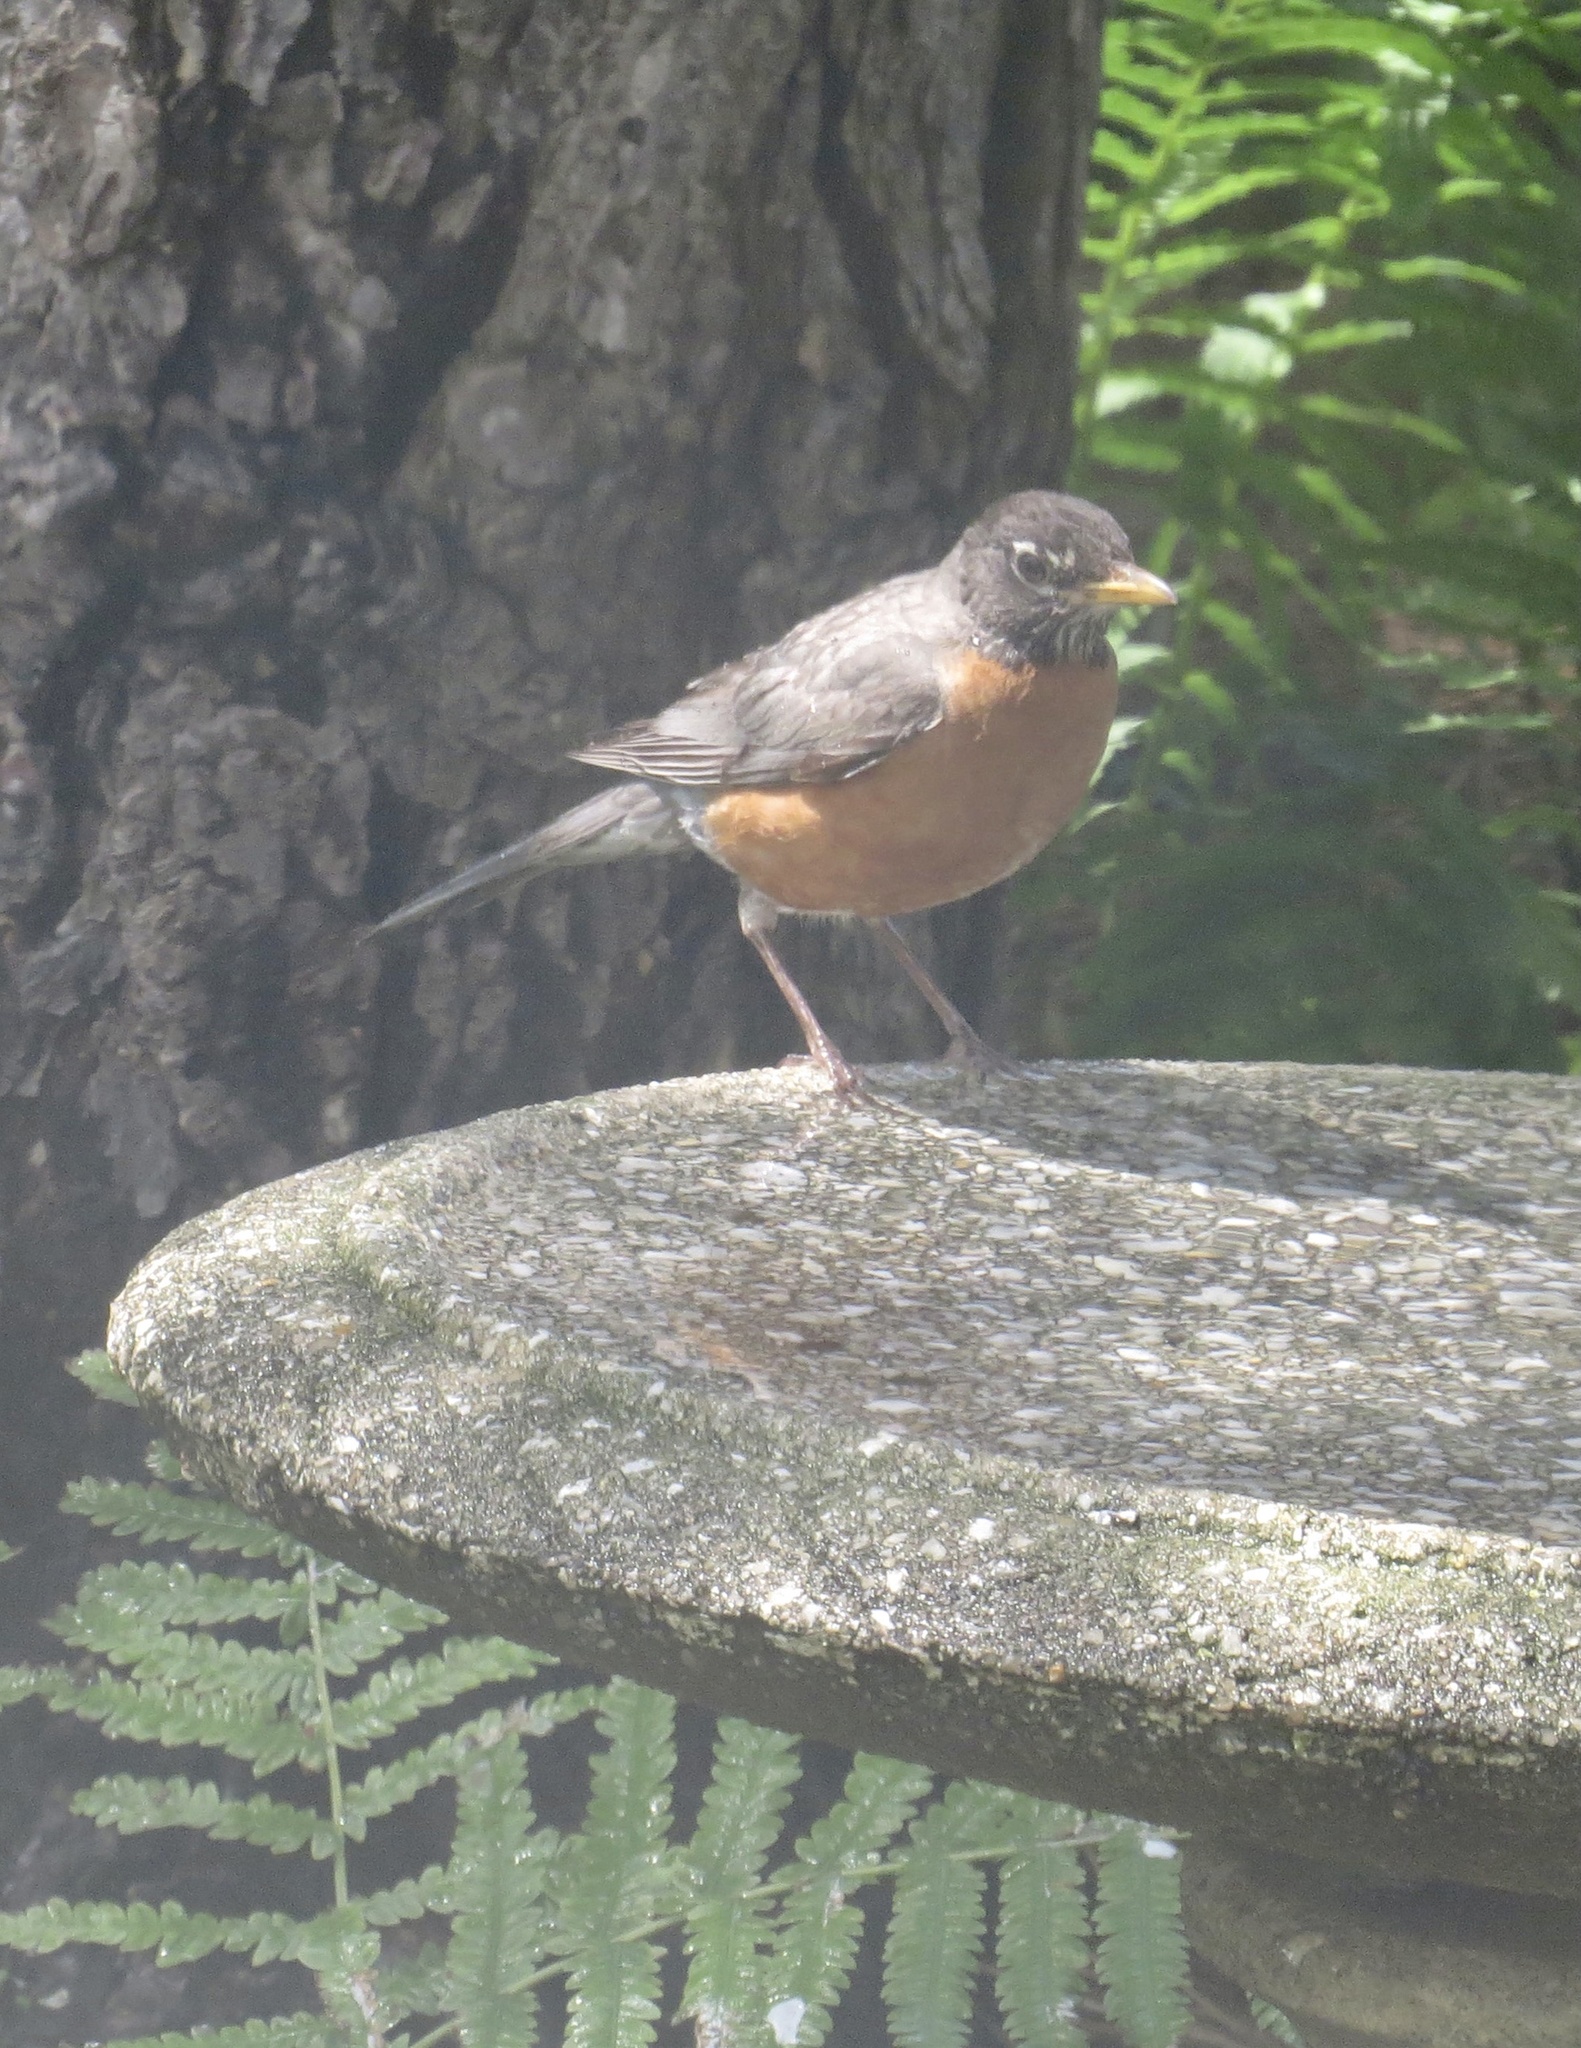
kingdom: Animalia
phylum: Chordata
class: Aves
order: Passeriformes
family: Turdidae
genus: Turdus
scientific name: Turdus migratorius
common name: American robin
